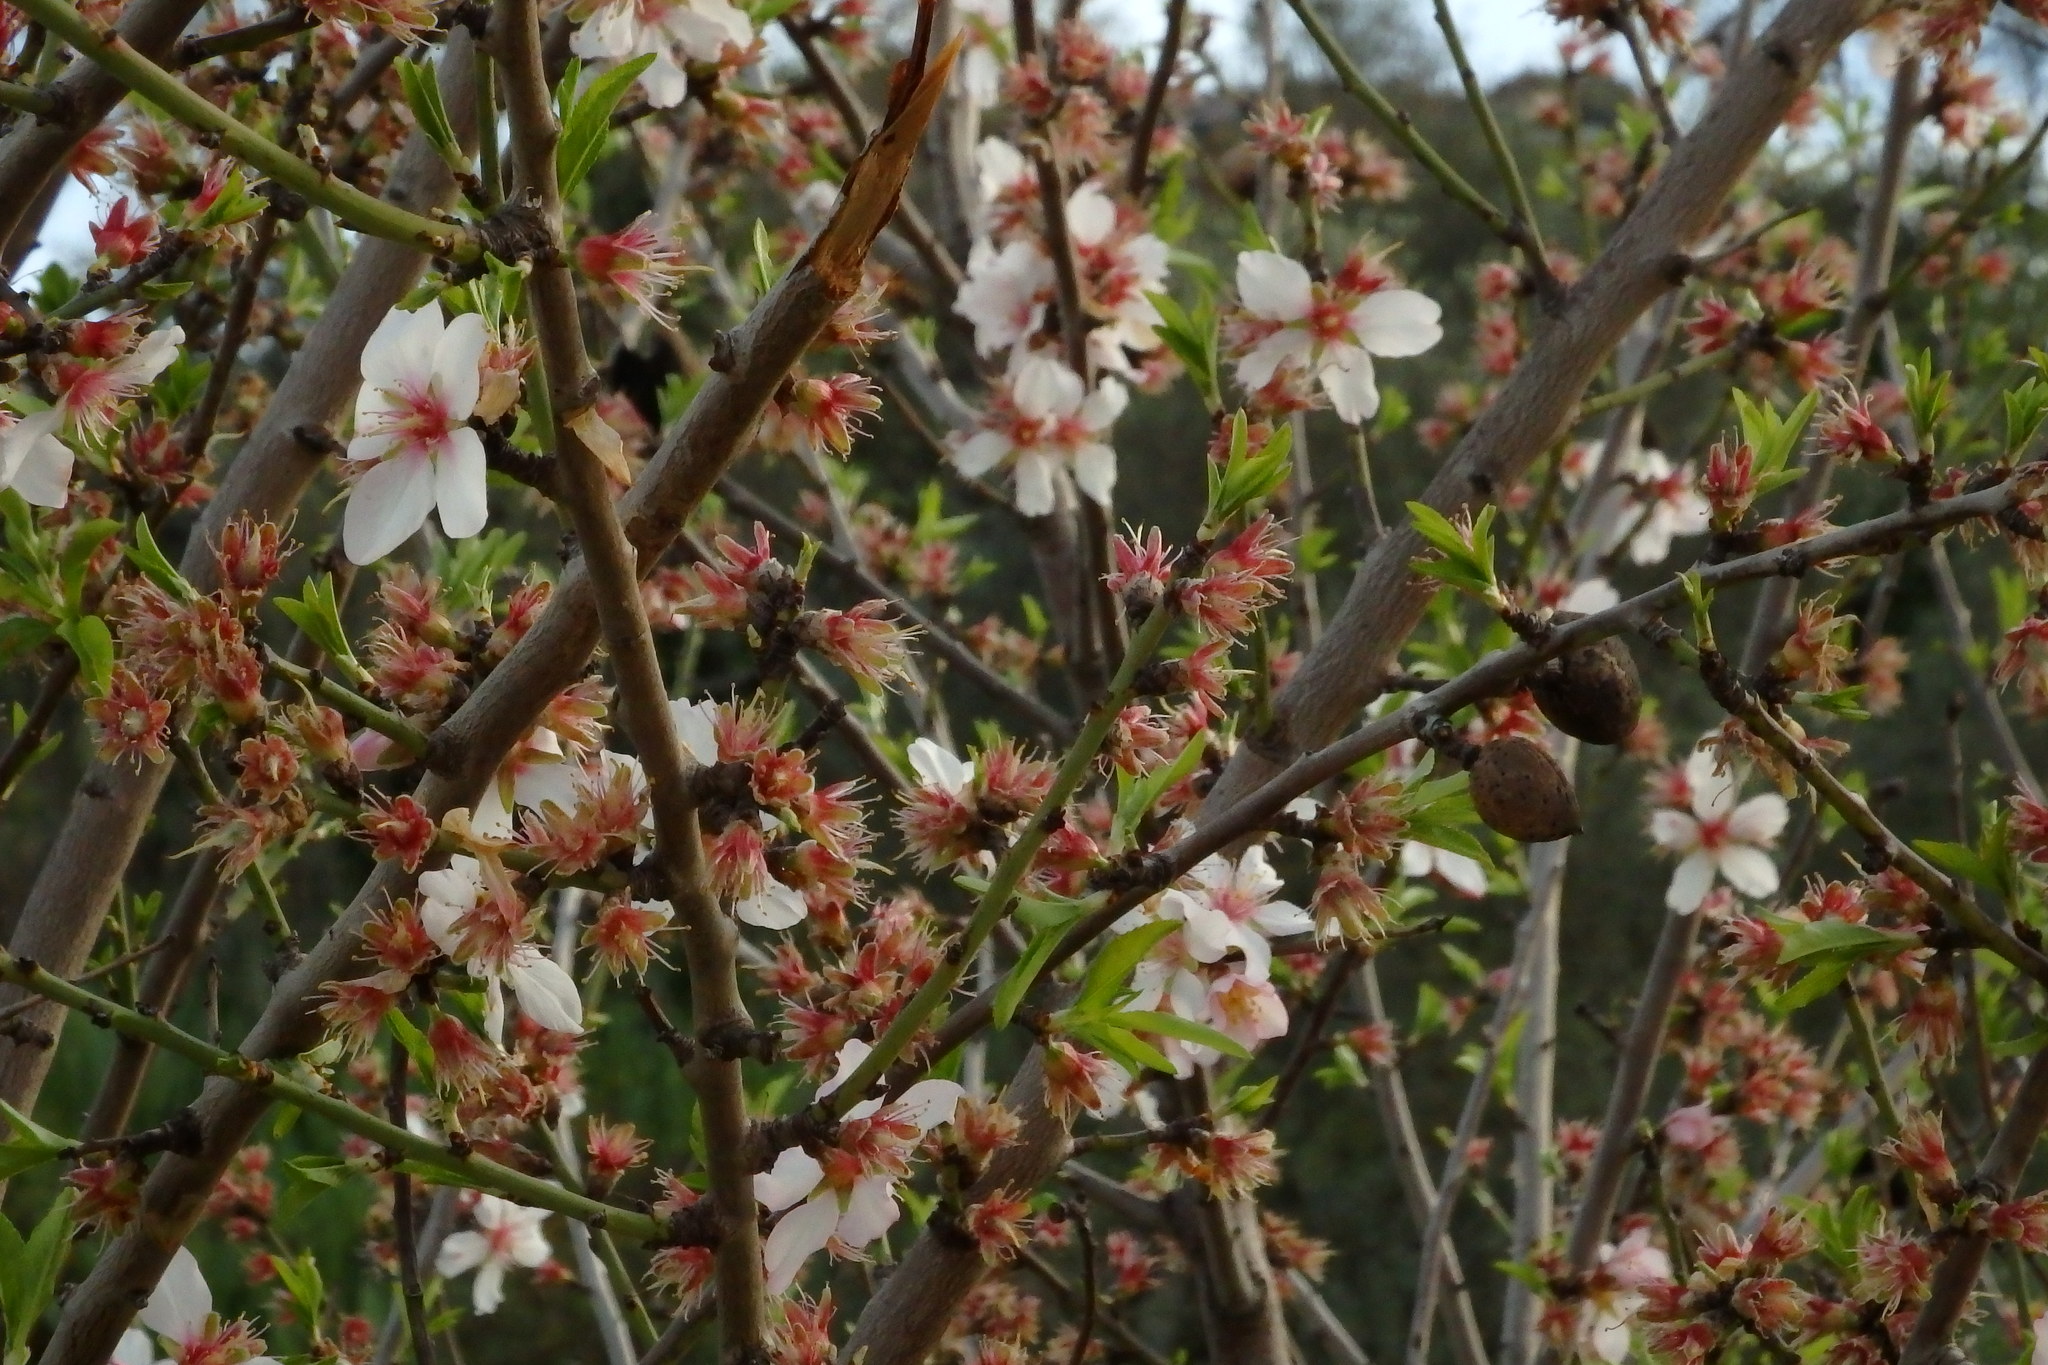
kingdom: Plantae
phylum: Tracheophyta
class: Magnoliopsida
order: Rosales
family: Rosaceae
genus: Prunus
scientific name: Prunus amygdalus
